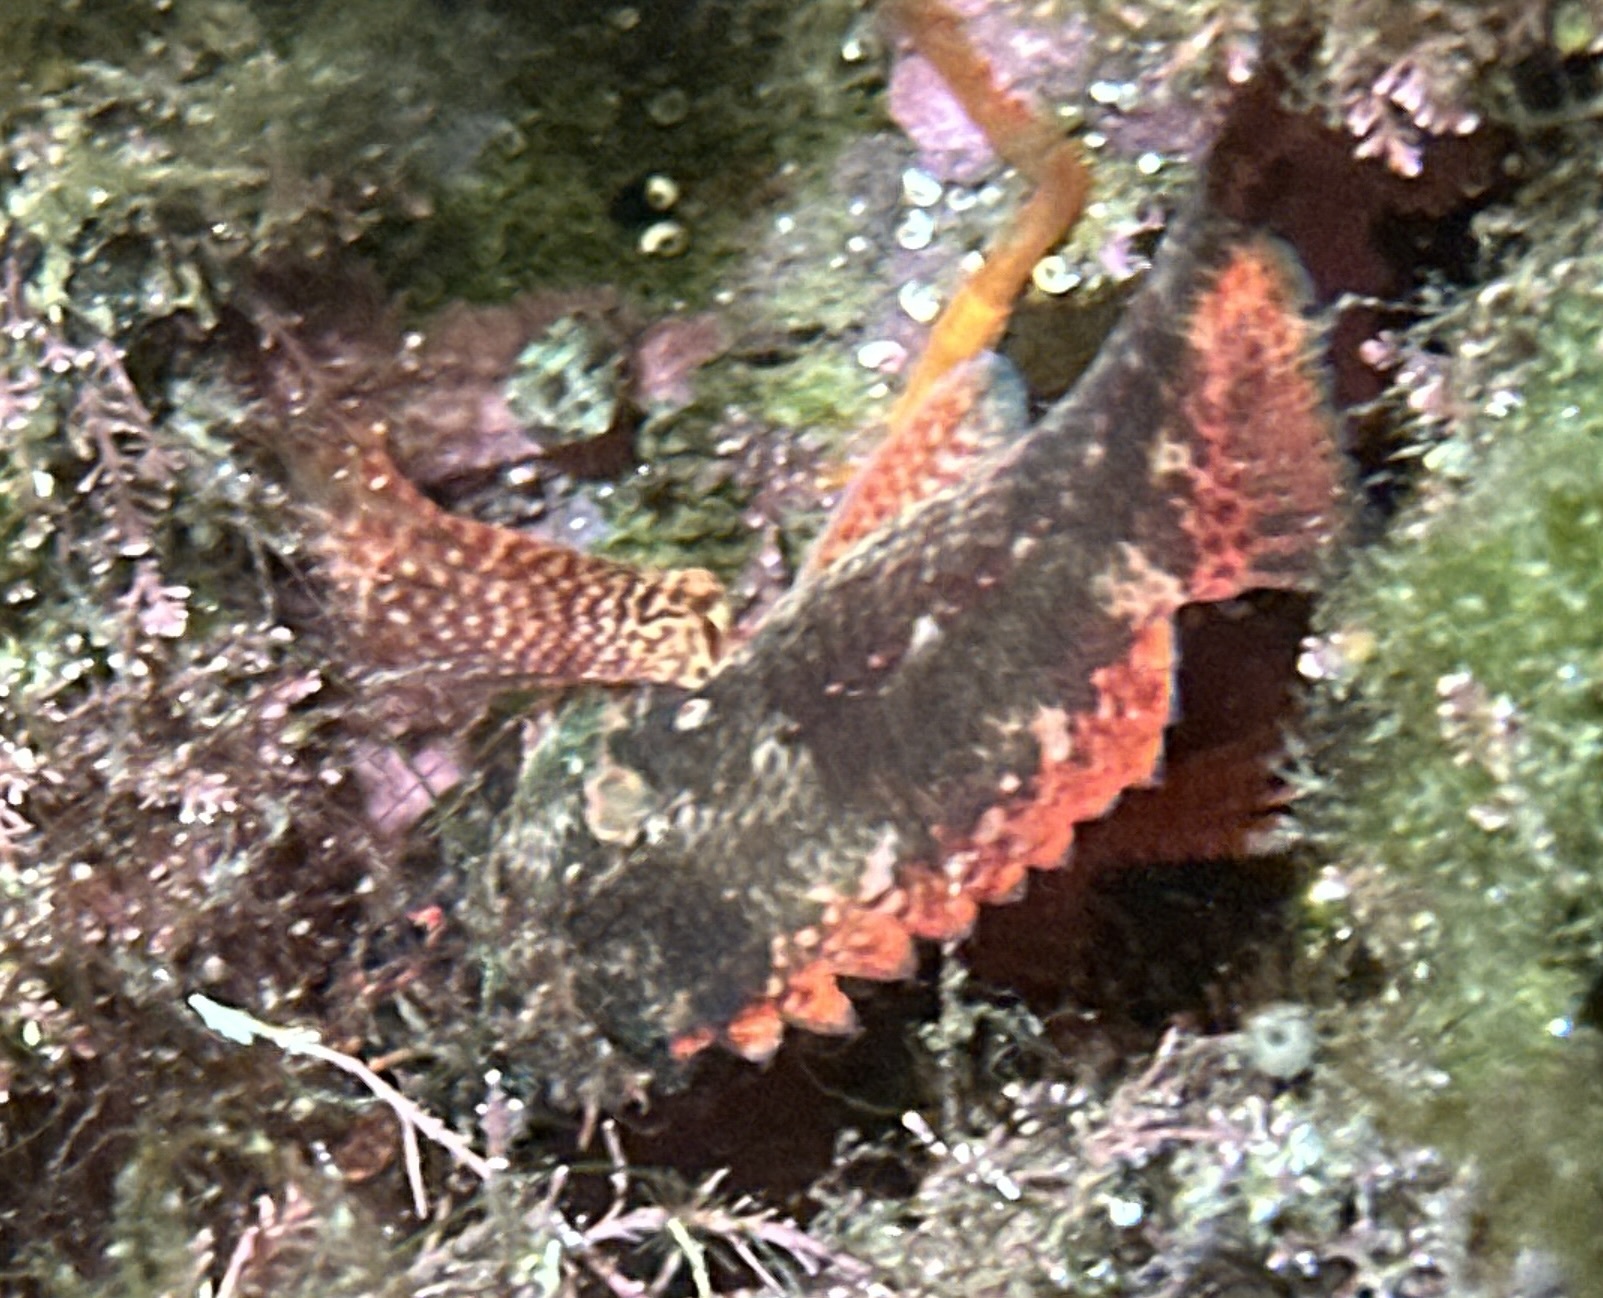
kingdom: Animalia
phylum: Chordata
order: Scorpaeniformes
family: Scorpaenidae
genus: Scorpaenodes
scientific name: Scorpaenodes evides
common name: Cheekspot scorpionfish
